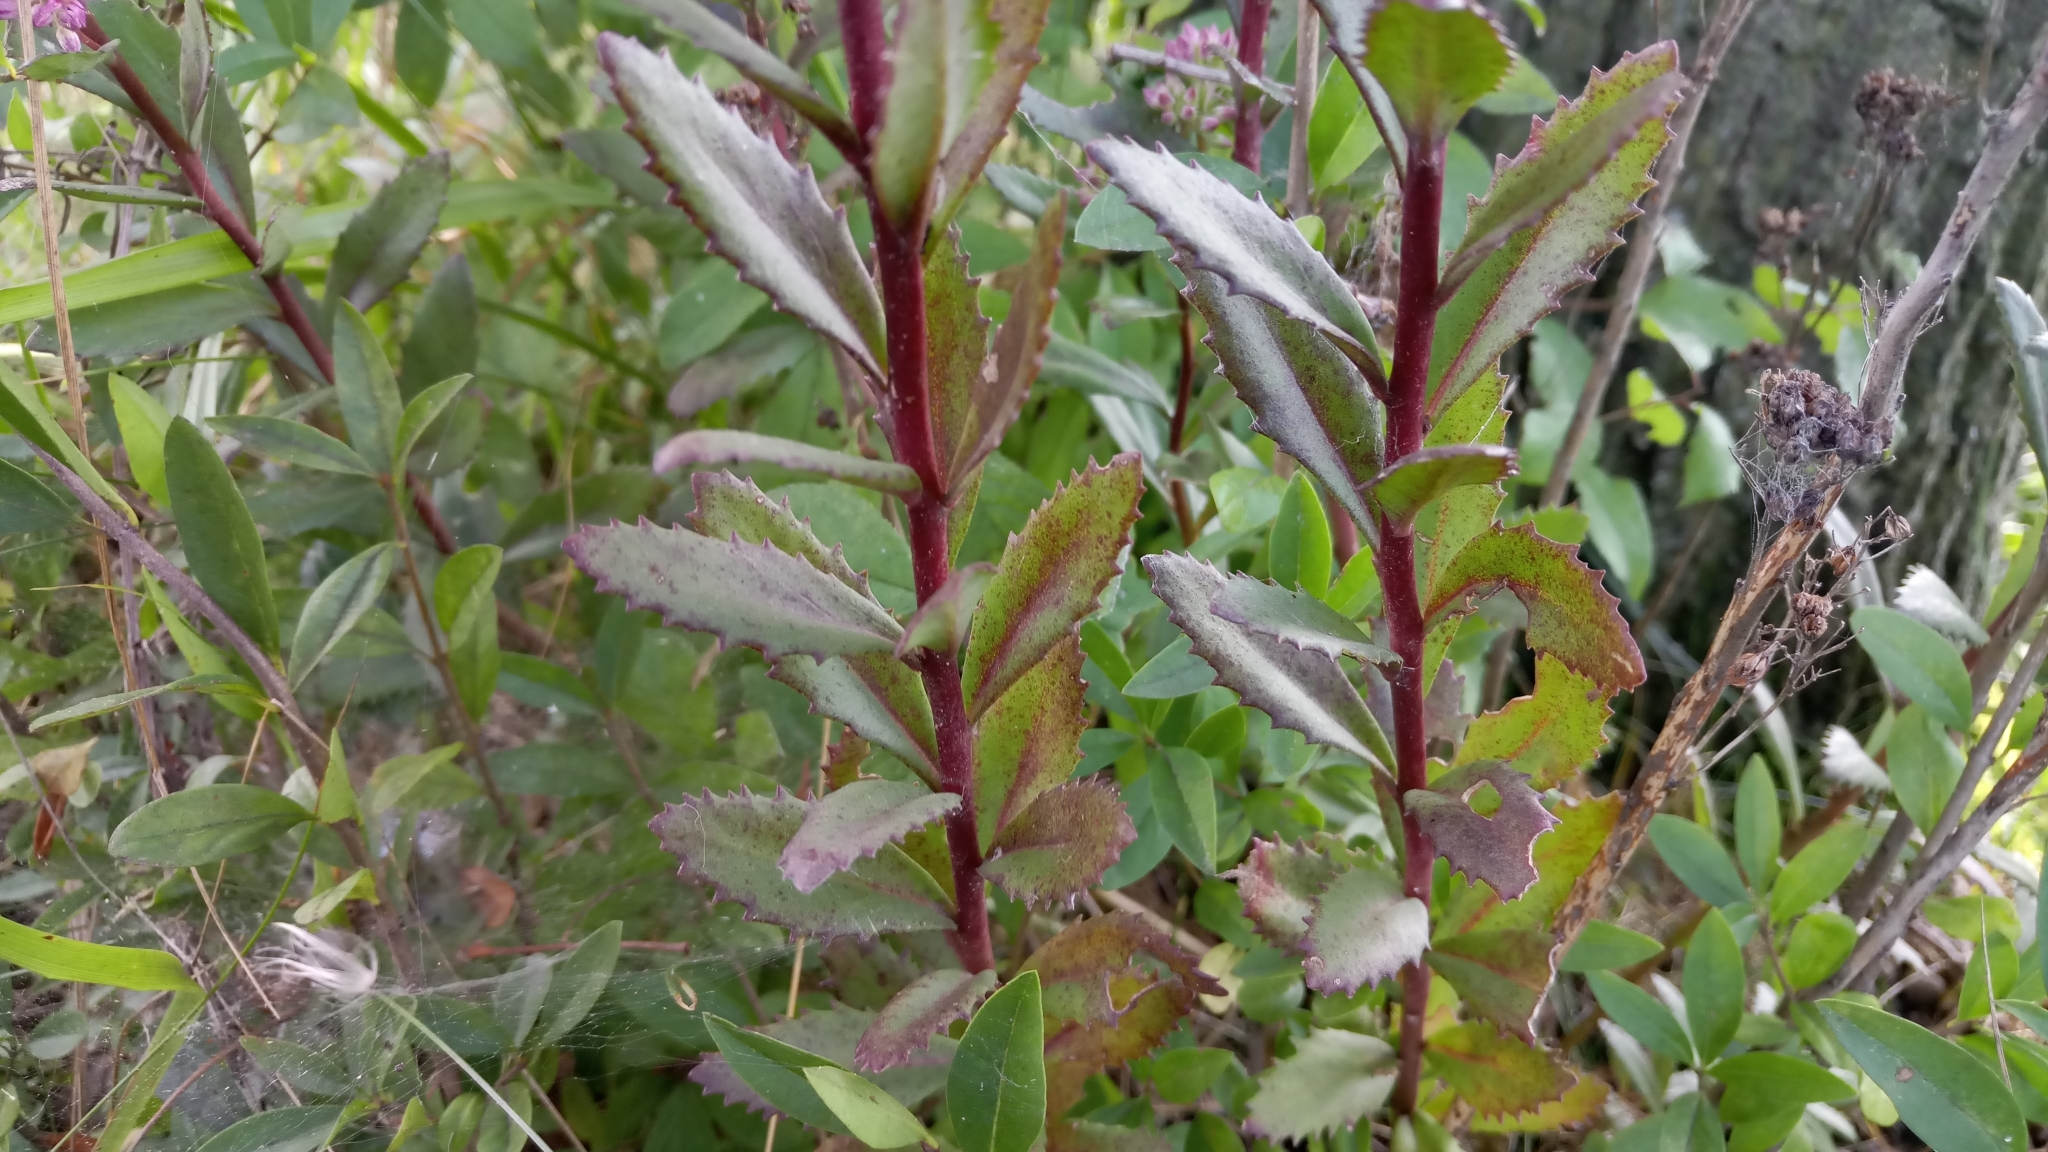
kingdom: Plantae
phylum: Tracheophyta
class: Magnoliopsida
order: Saxifragales
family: Crassulaceae
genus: Hylotelephium
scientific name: Hylotelephium telephium
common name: Live-forever
